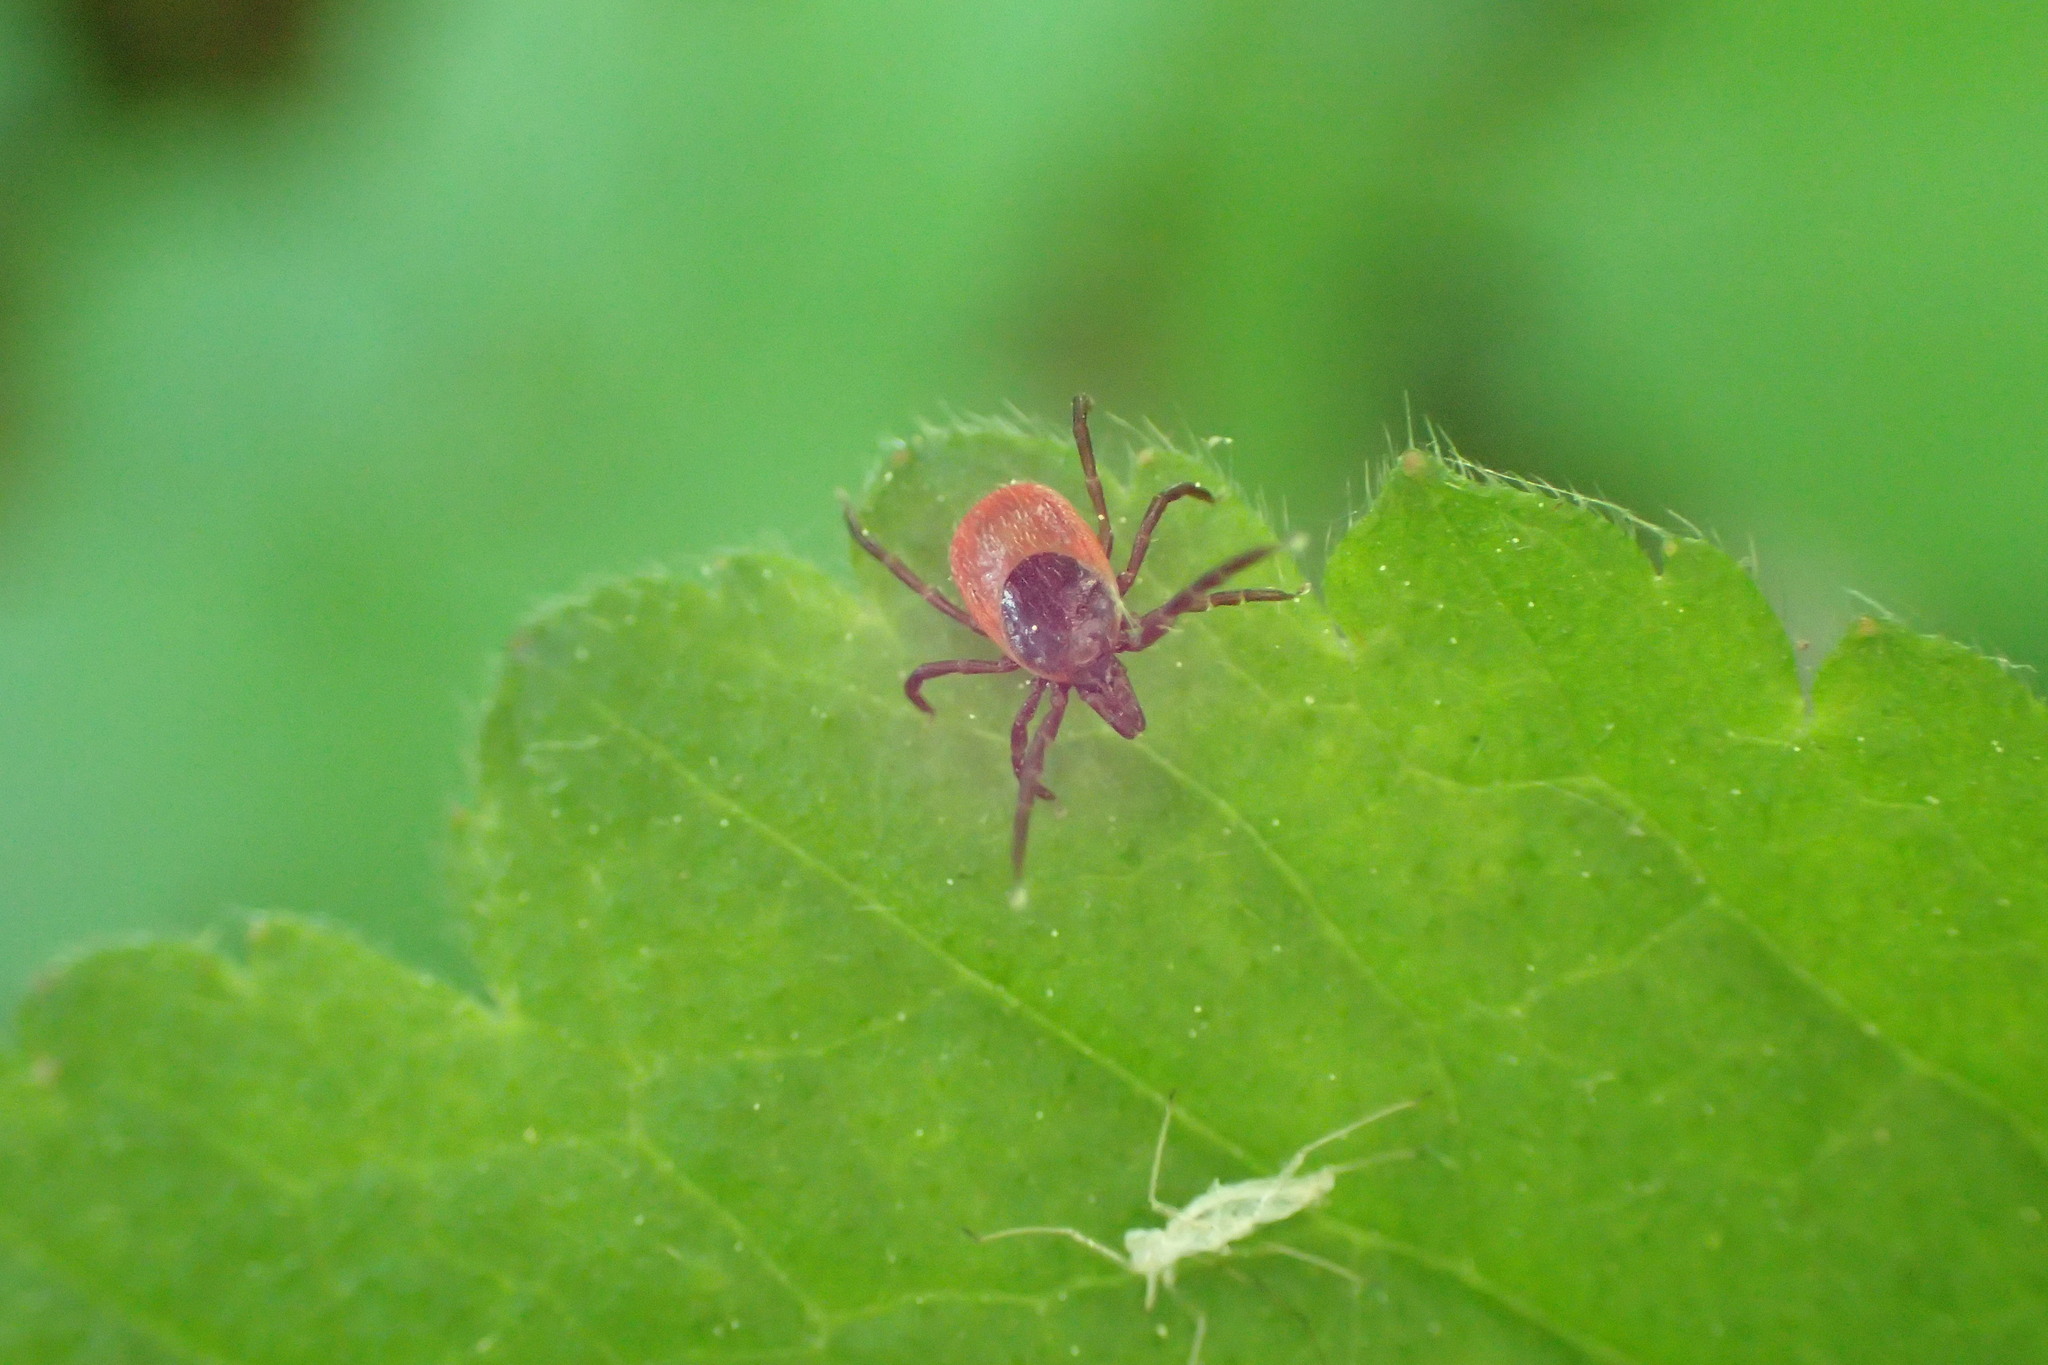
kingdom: Animalia
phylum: Arthropoda
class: Arachnida
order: Ixodida
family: Ixodidae
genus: Ixodes
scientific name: Ixodes ricinus
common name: Castor bean tick
